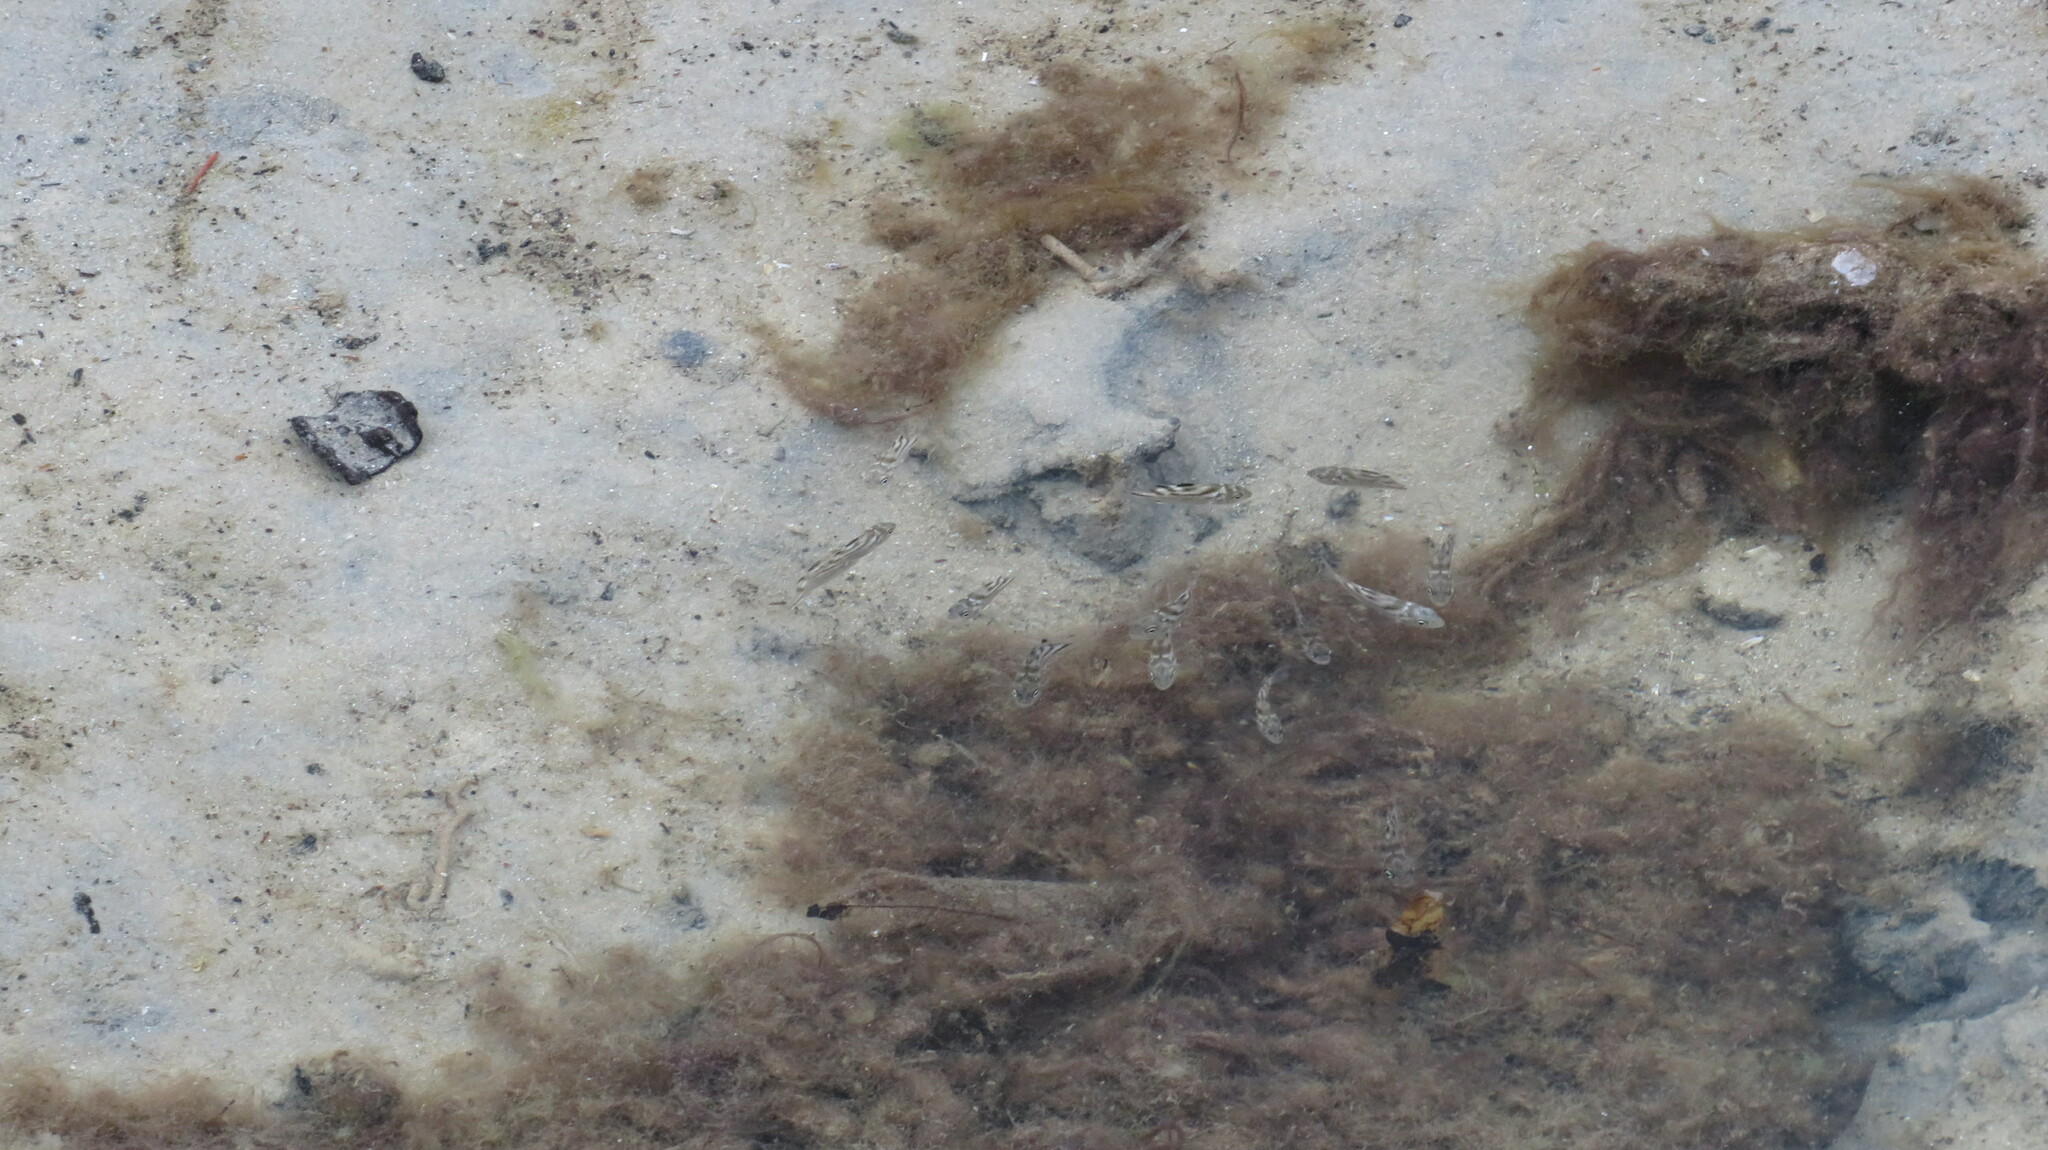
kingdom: Animalia
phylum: Chordata
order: Perciformes
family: Terapontidae
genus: Terapon
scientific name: Terapon jarbua
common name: Jarbua terapon
